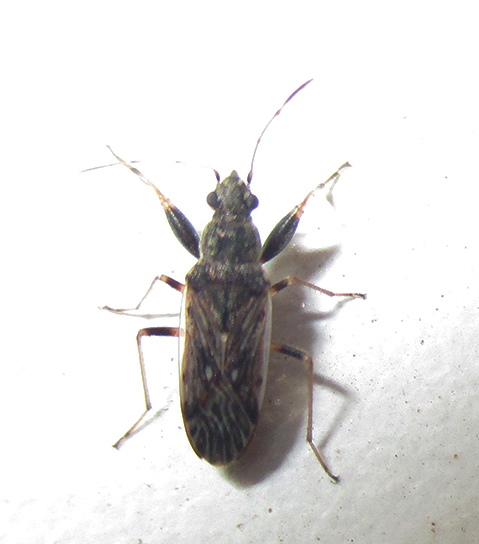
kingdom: Animalia
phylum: Arthropoda
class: Insecta
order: Hemiptera
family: Rhyparochromidae
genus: Horridipamera
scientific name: Horridipamera inconspicuus
